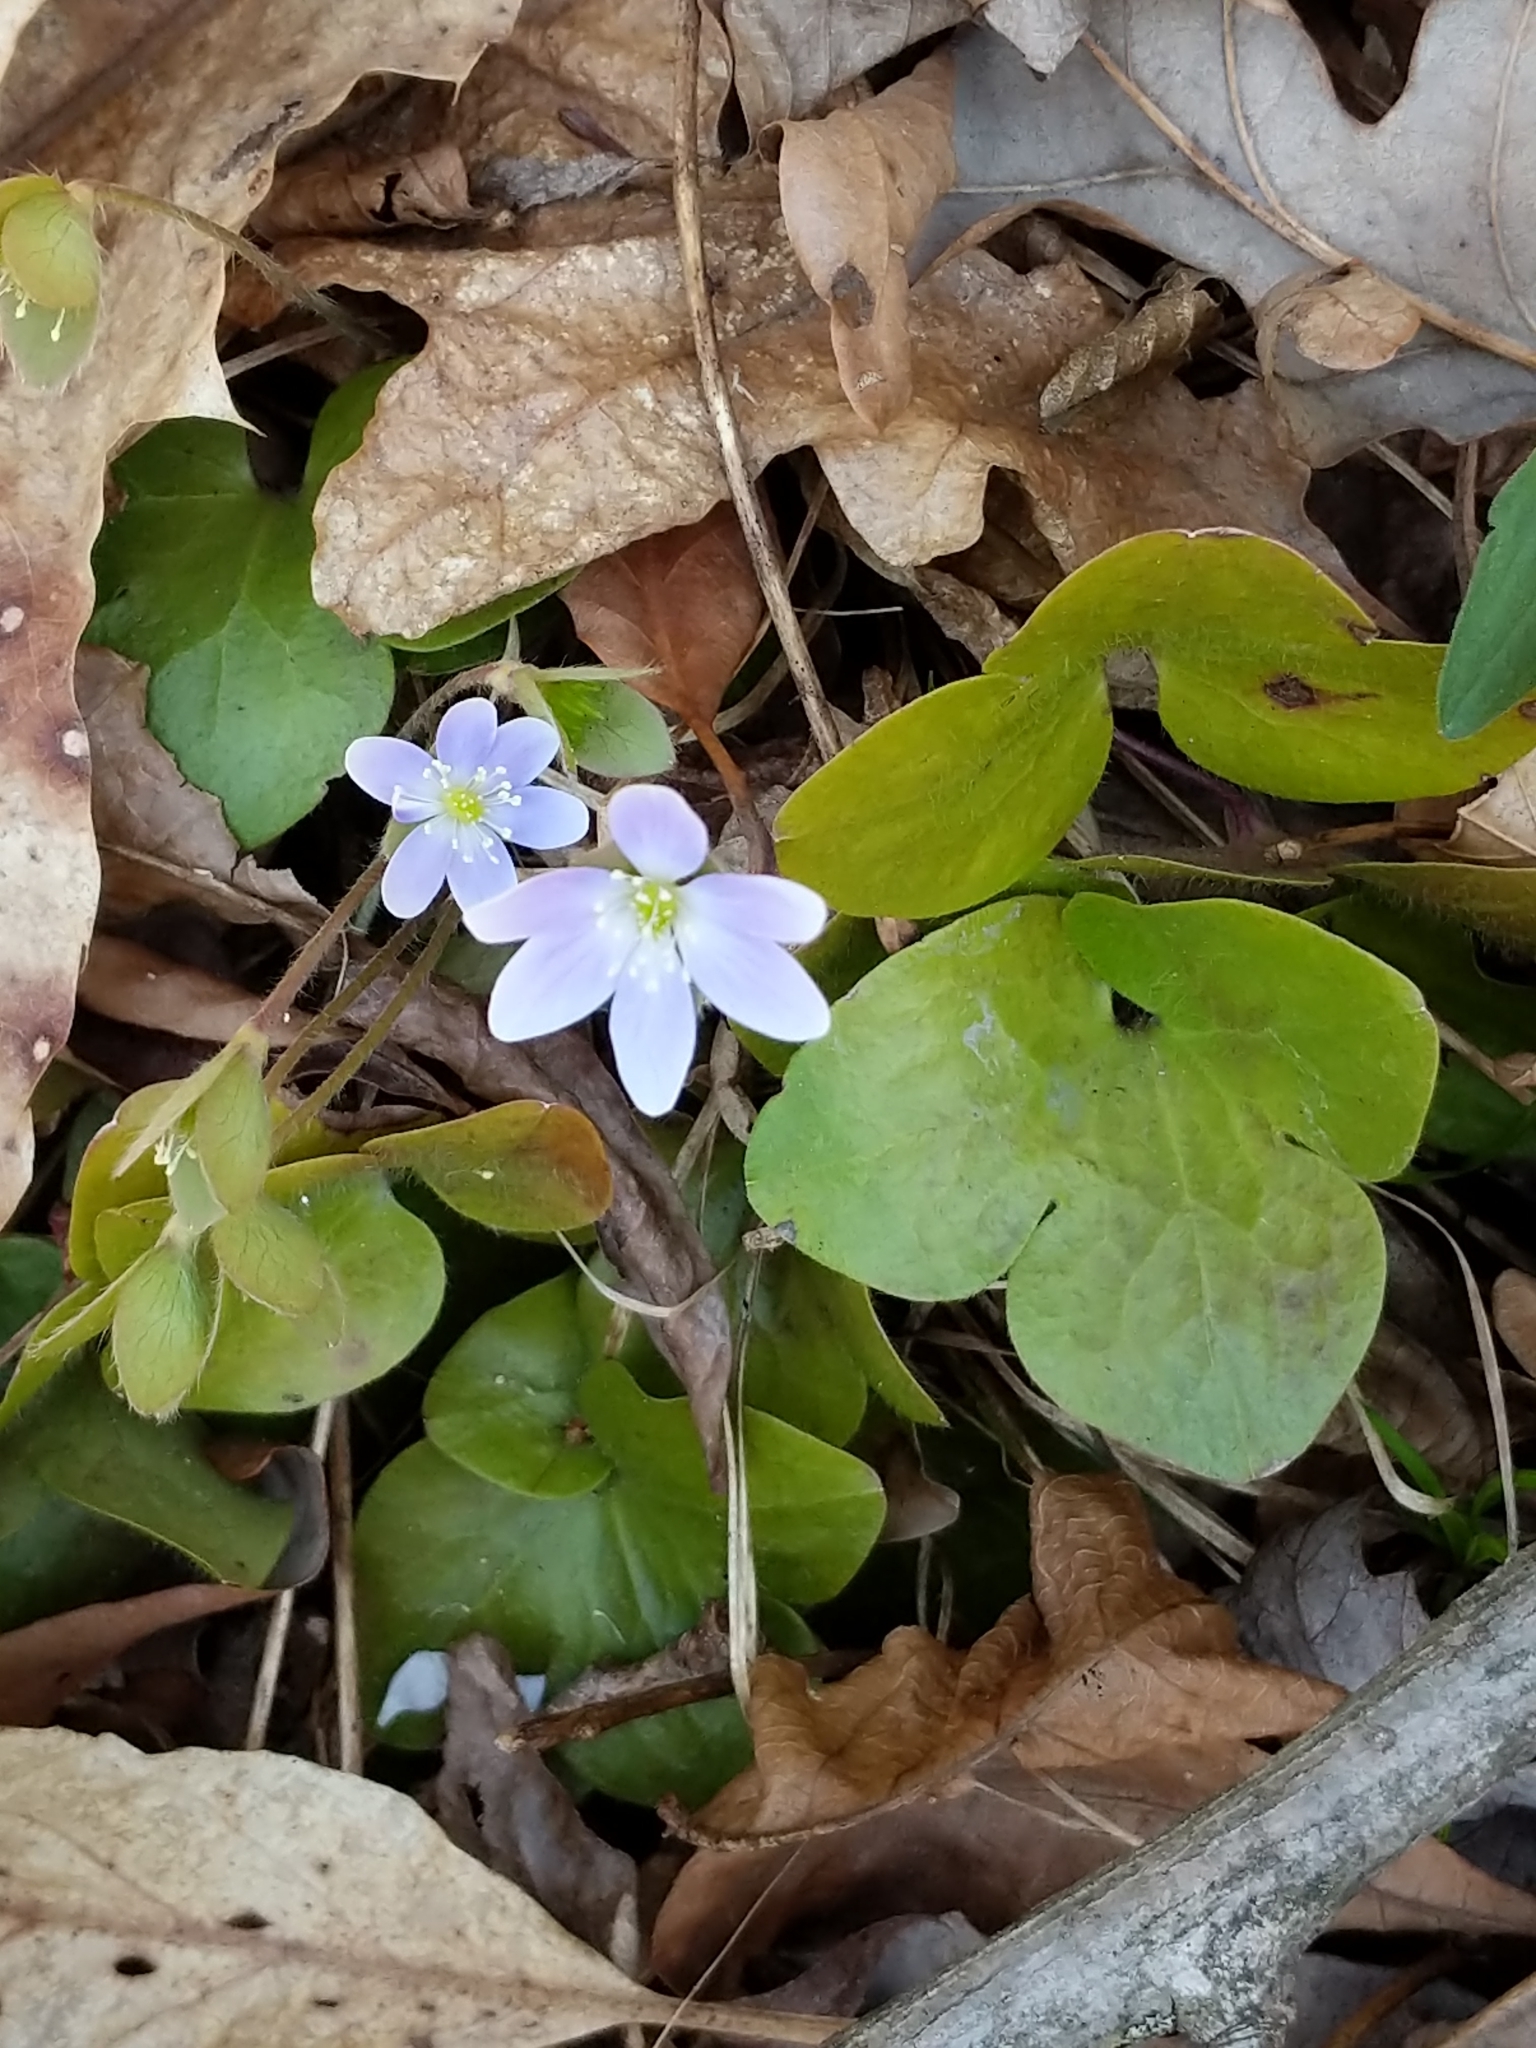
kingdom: Plantae
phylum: Tracheophyta
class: Magnoliopsida
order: Ranunculales
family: Ranunculaceae
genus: Hepatica
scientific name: Hepatica americana
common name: American hepatica
